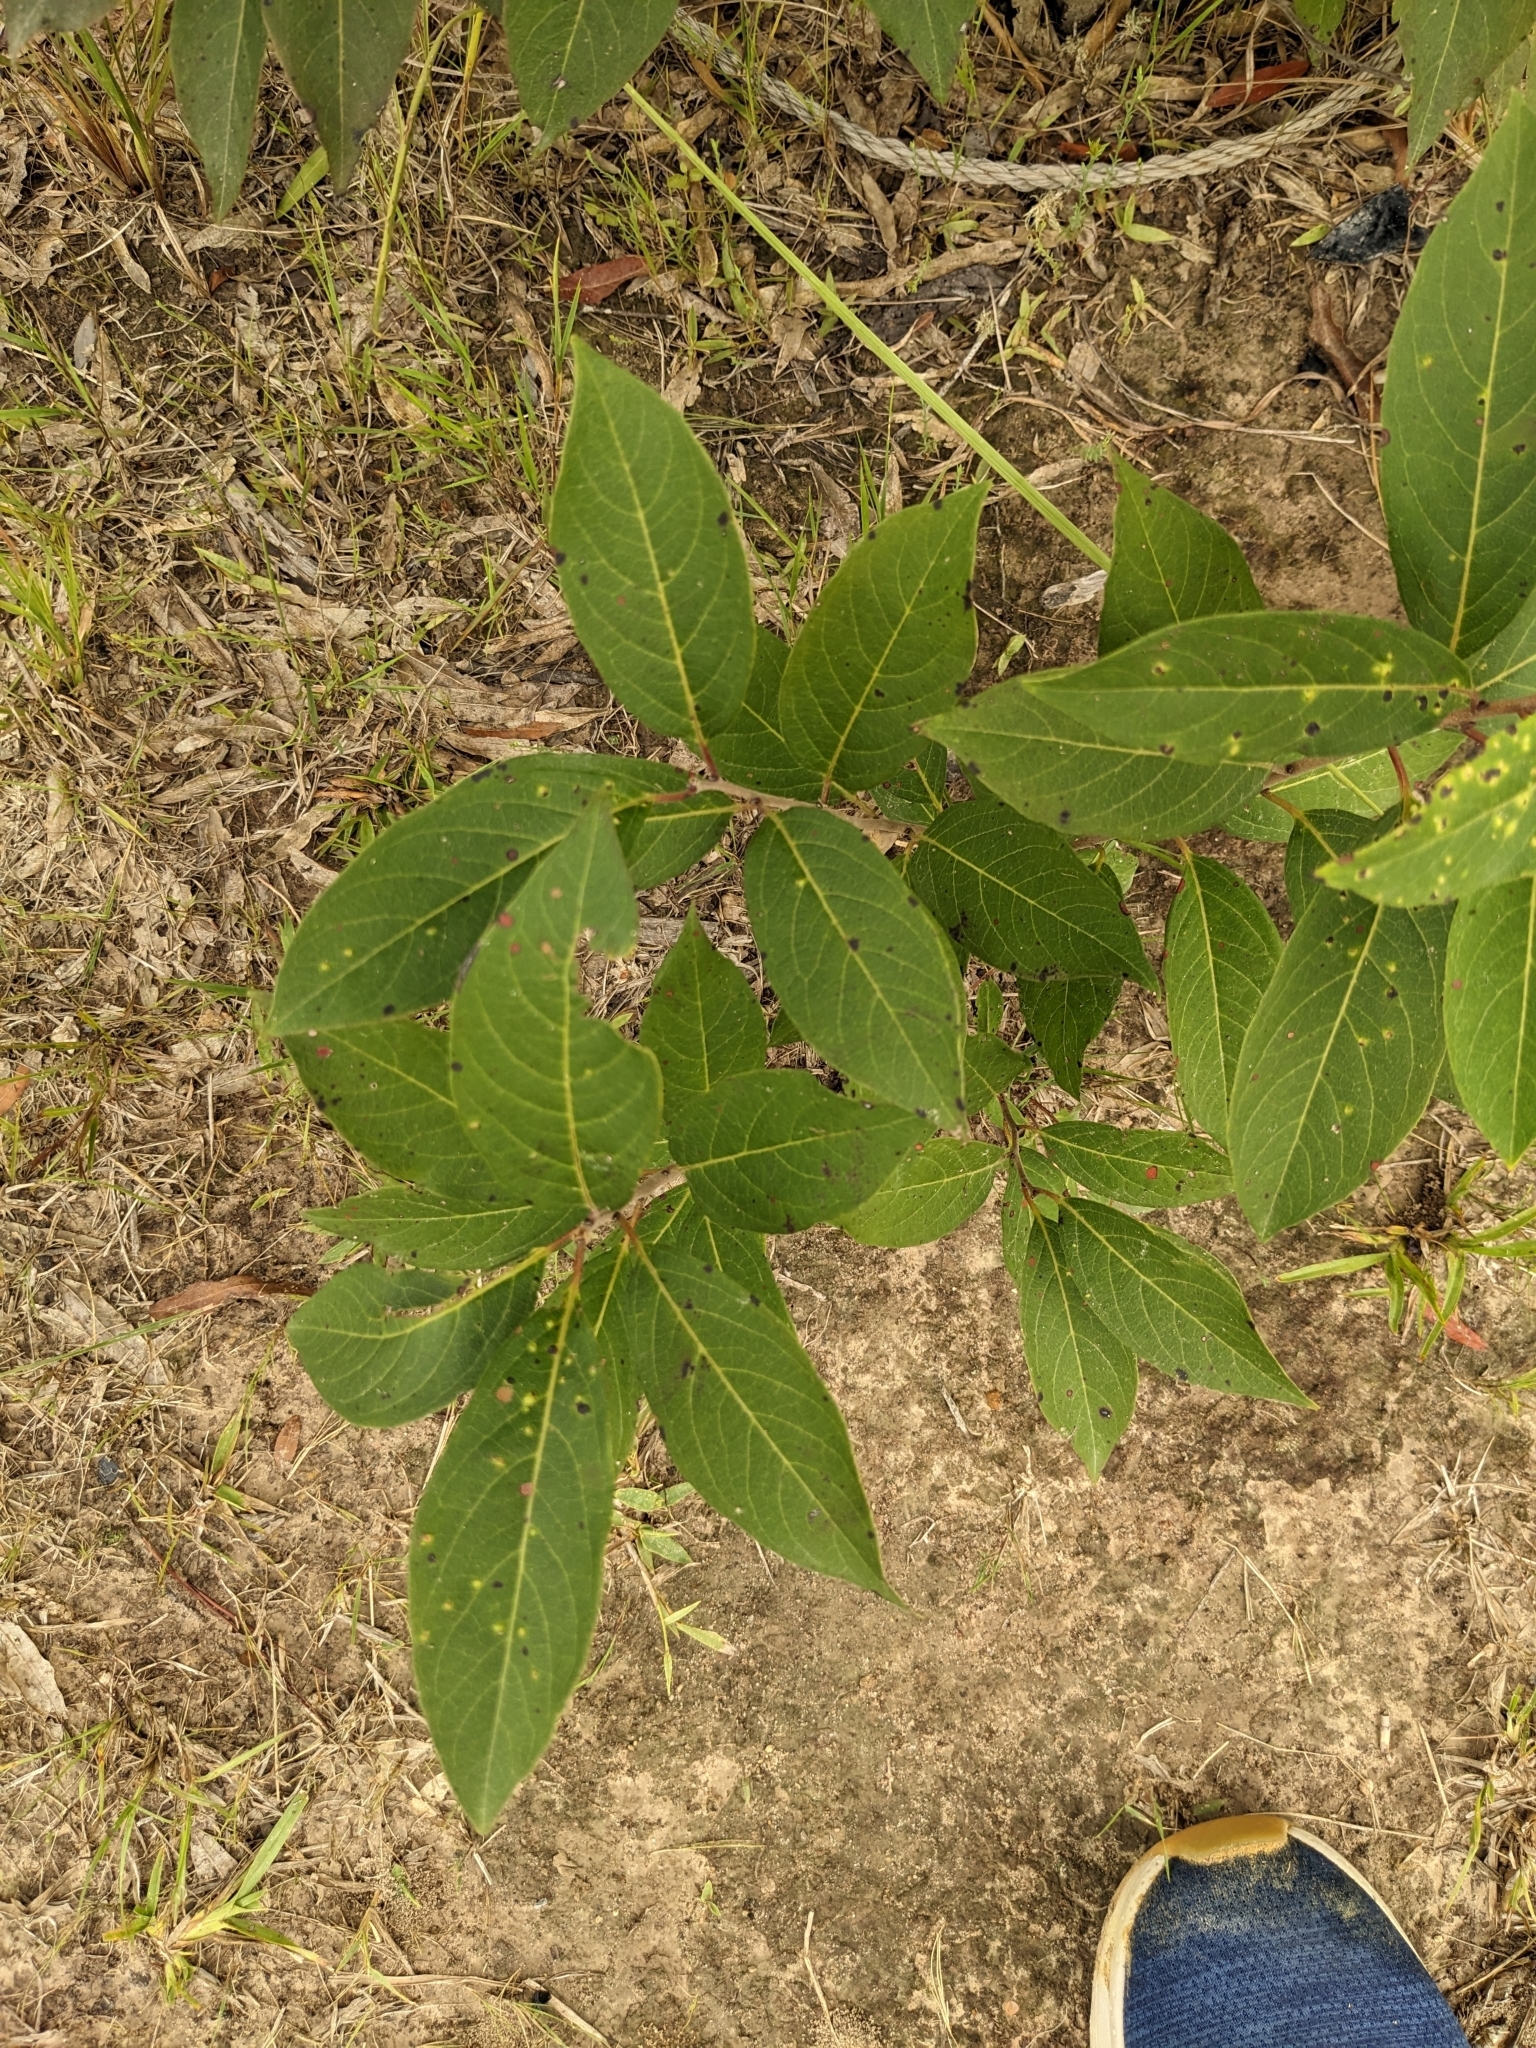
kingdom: Animalia
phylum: Arthropoda
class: Arachnida
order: Trombidiformes
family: Eriophyidae
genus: Aceria
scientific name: Aceria
